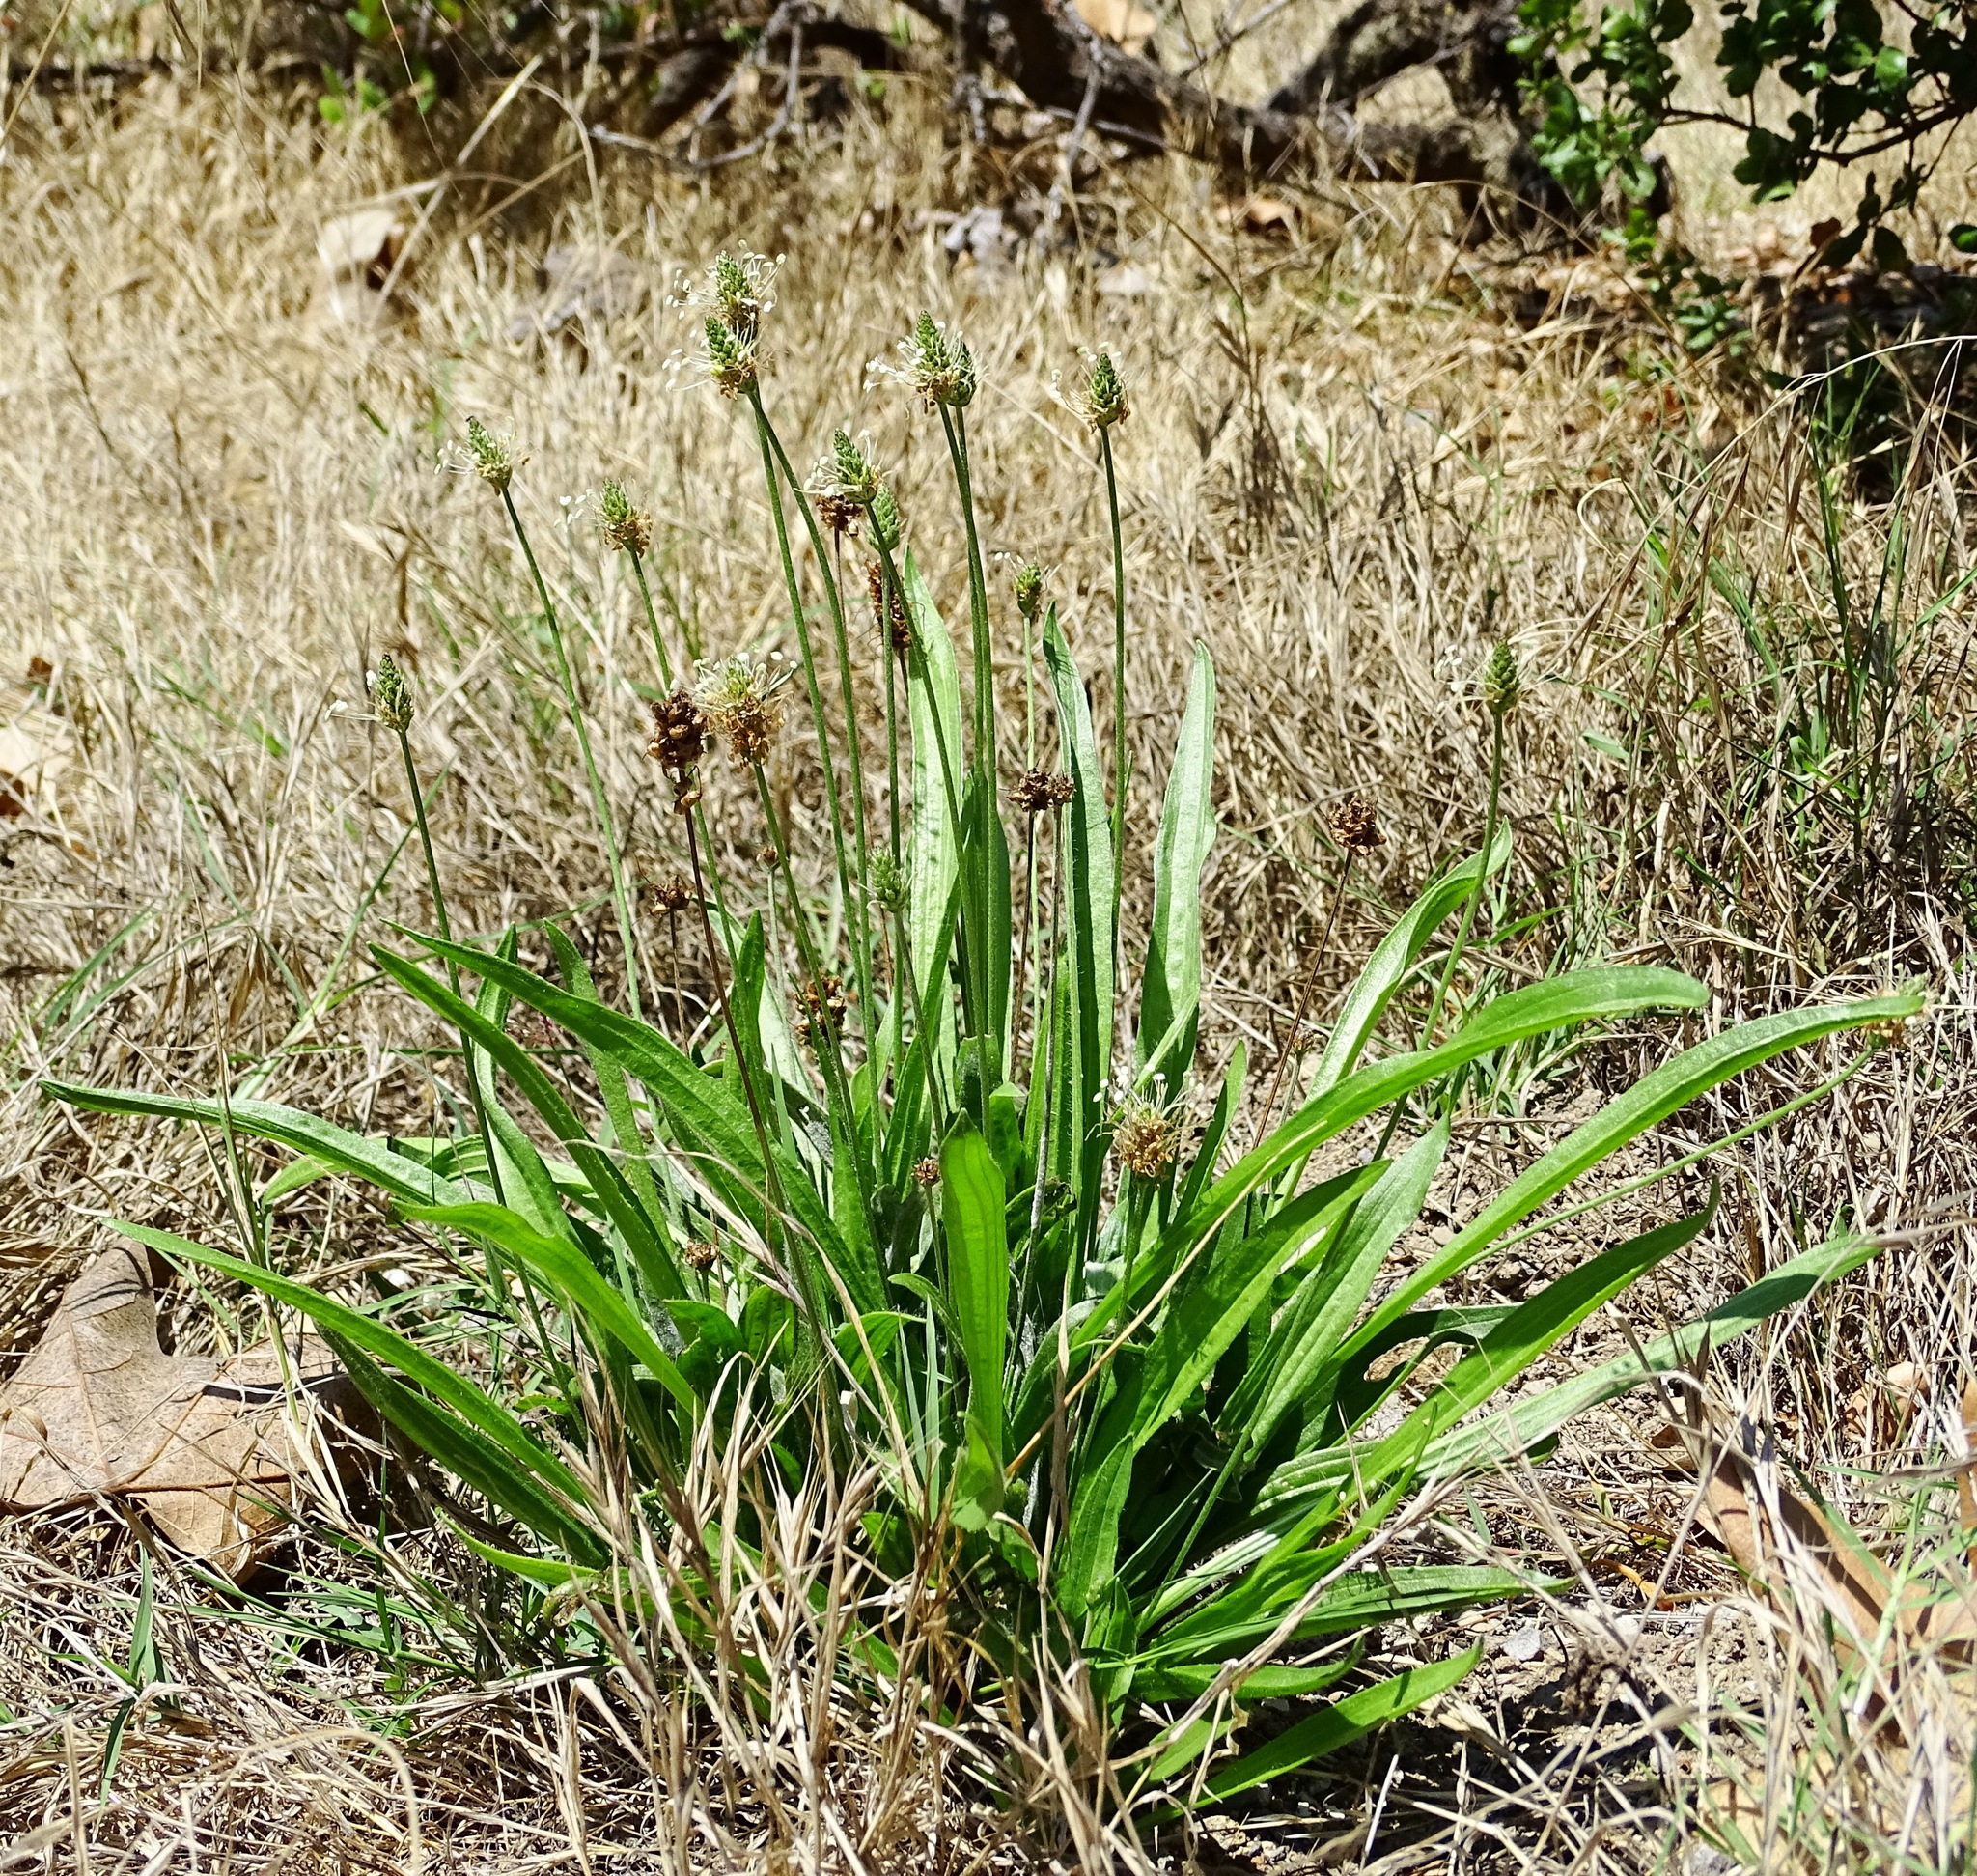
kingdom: Plantae
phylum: Tracheophyta
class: Magnoliopsida
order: Lamiales
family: Plantaginaceae
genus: Plantago
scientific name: Plantago lanceolata
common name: Ribwort plantain
